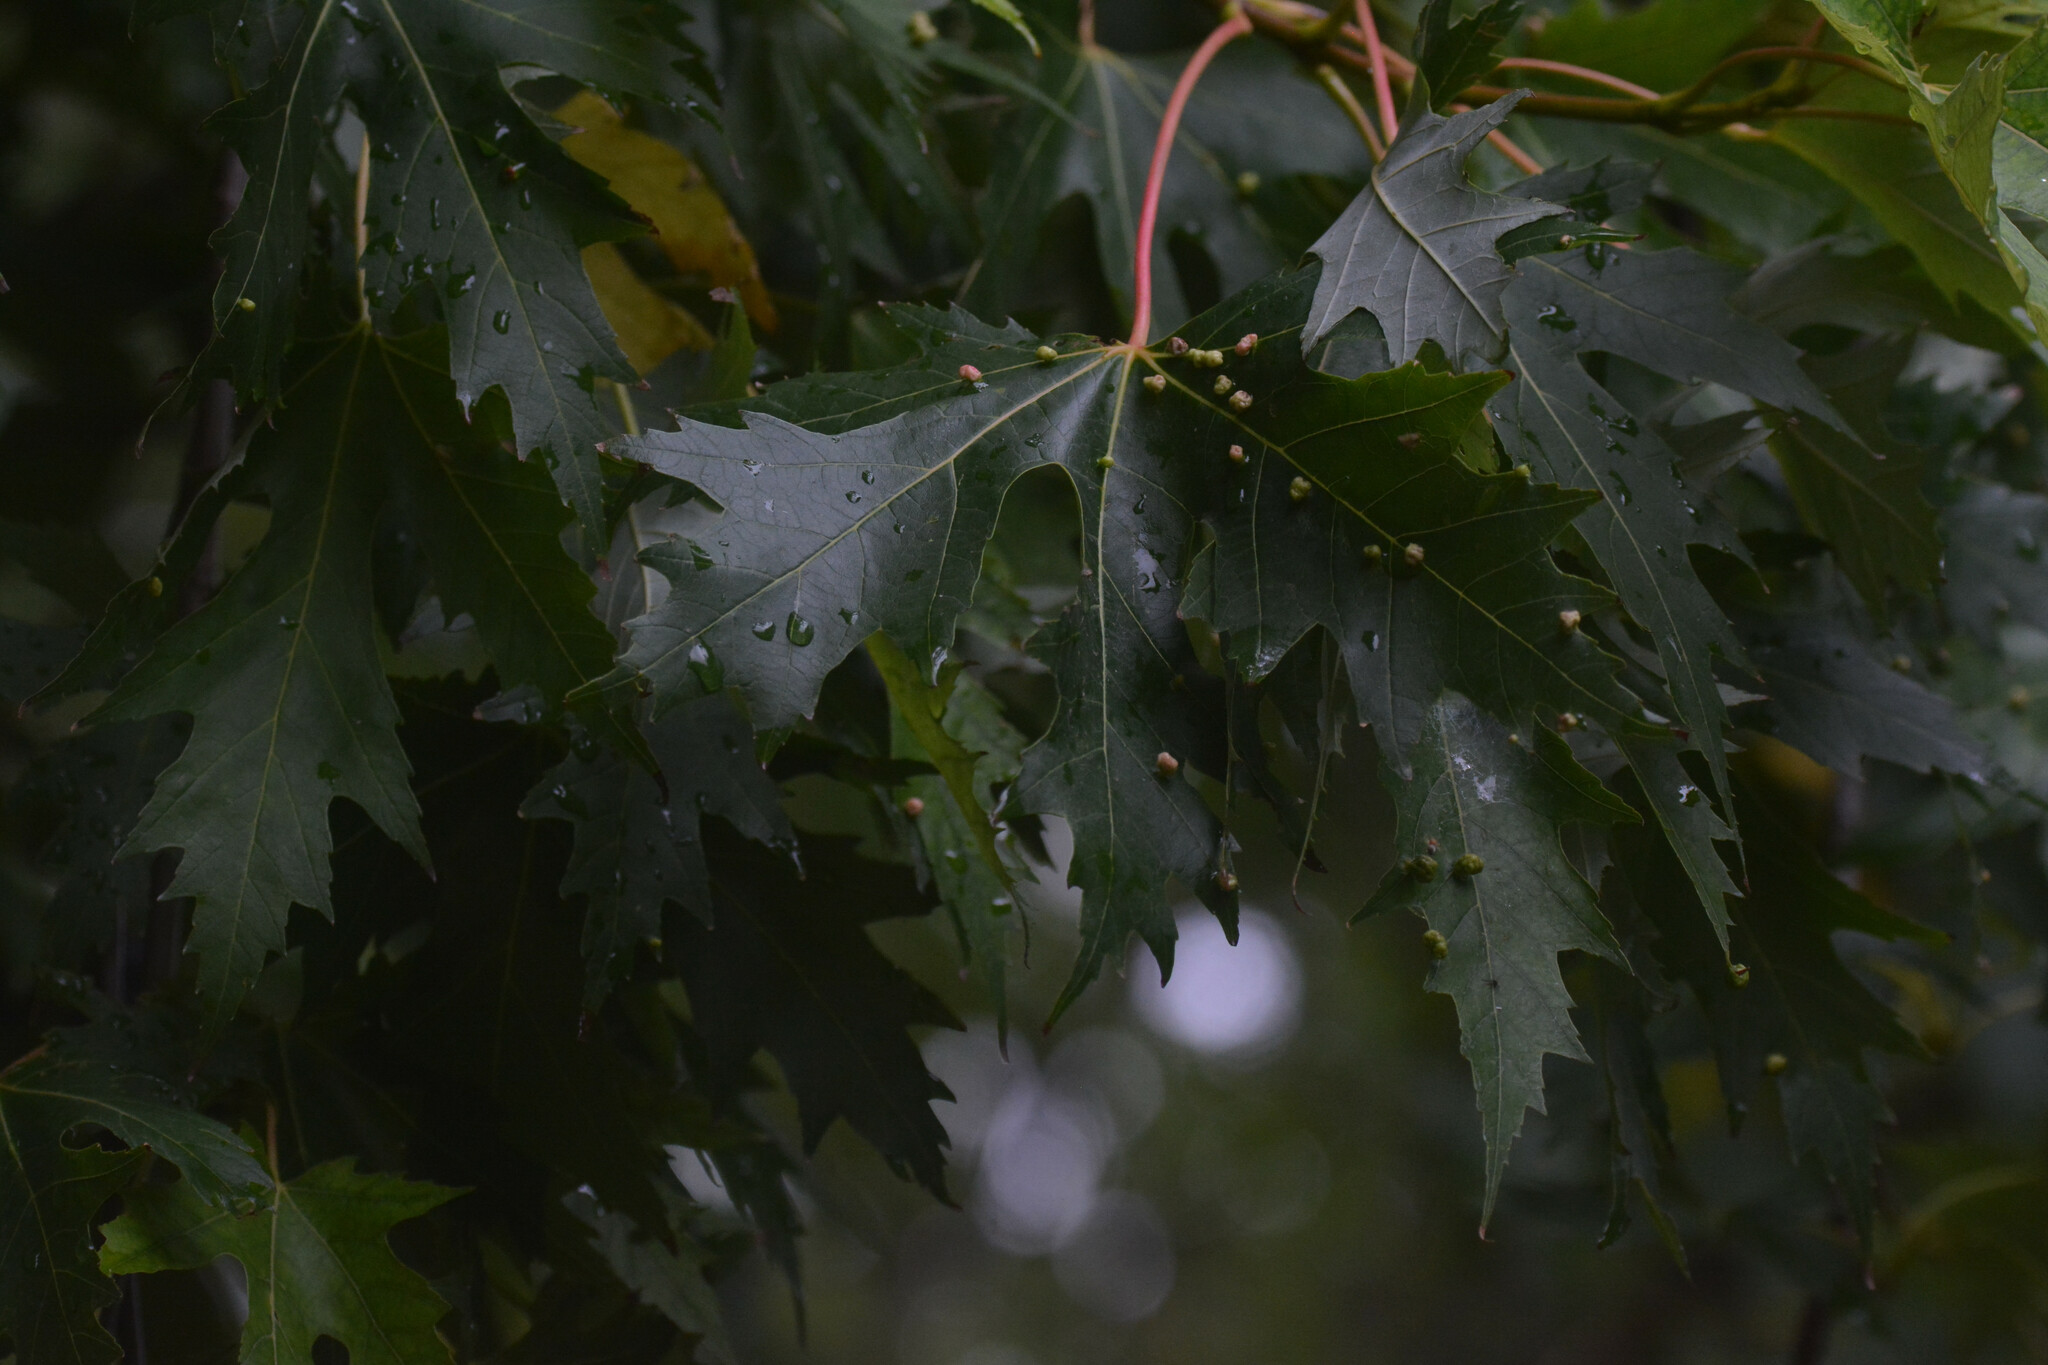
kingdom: Plantae
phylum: Tracheophyta
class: Magnoliopsida
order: Sapindales
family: Sapindaceae
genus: Acer
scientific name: Acer saccharinum
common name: Silver maple
